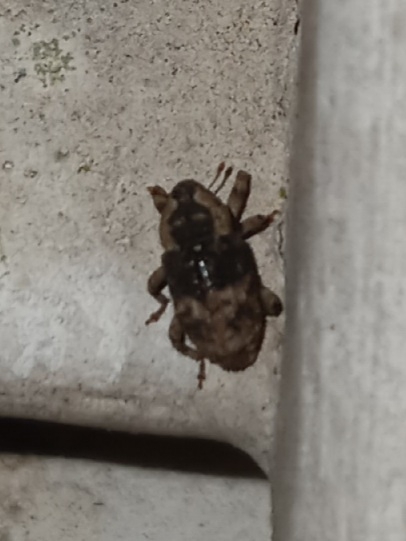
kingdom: Animalia
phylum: Arthropoda
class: Insecta
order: Coleoptera
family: Curculionidae
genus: Cophes
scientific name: Cophes fallax
